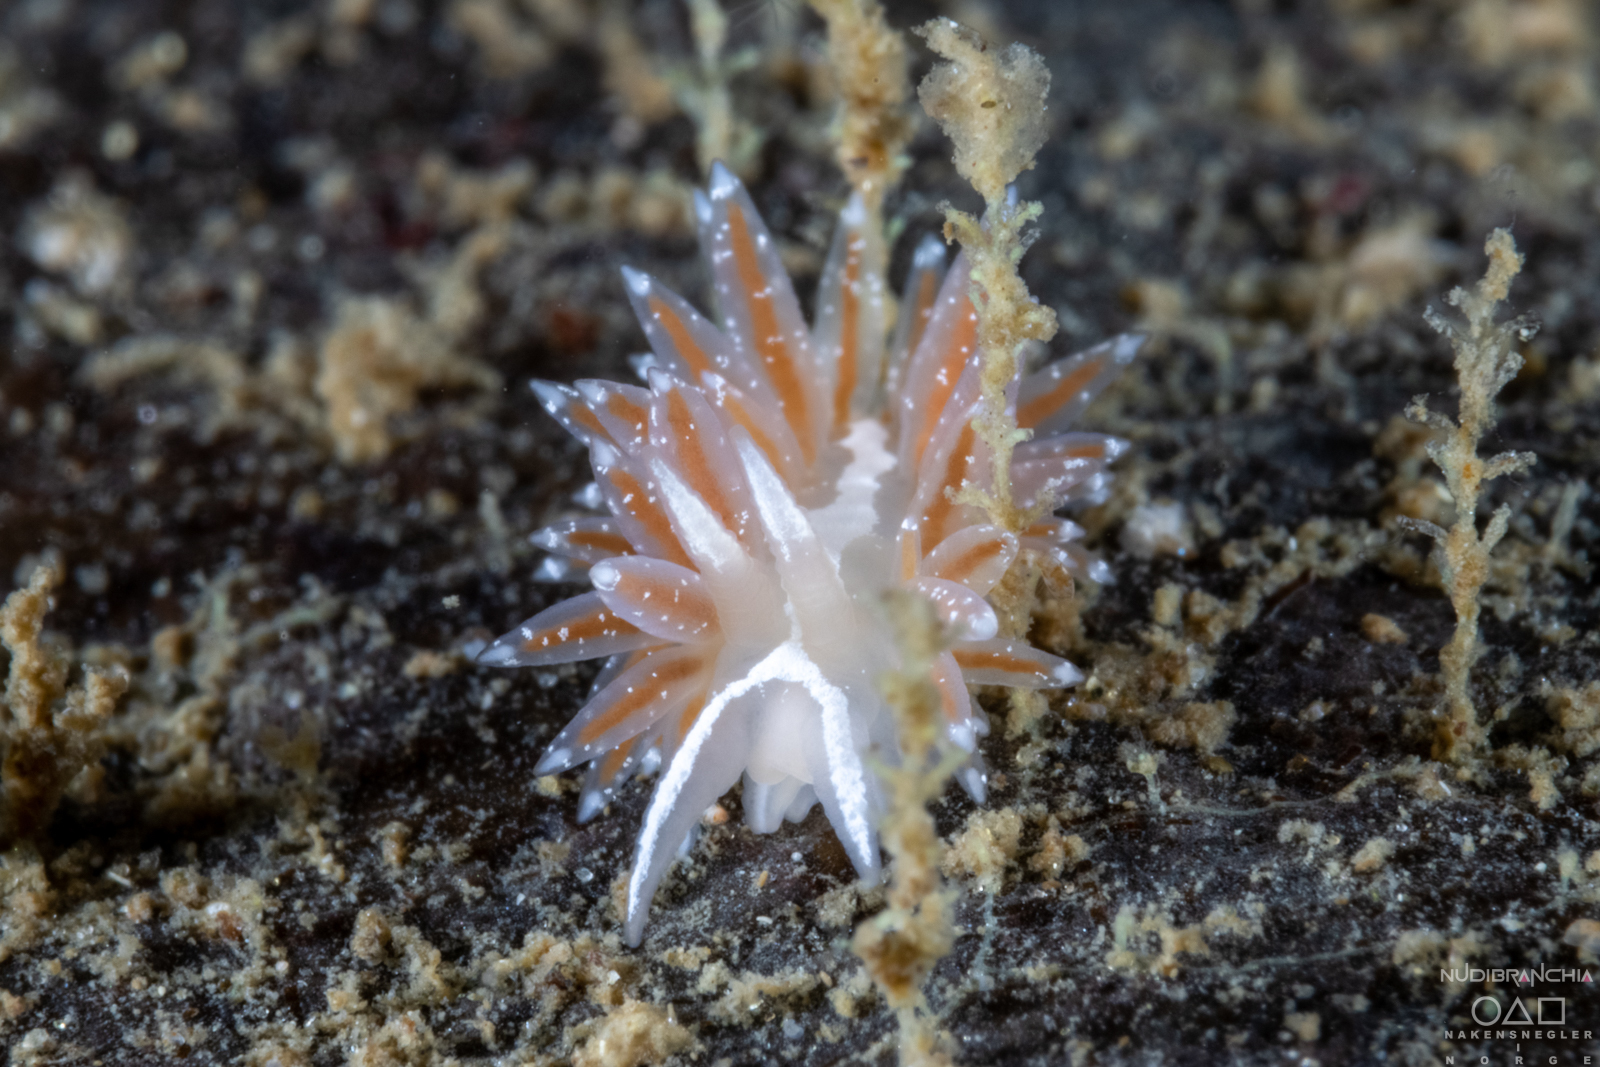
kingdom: Animalia
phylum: Mollusca
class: Gastropoda
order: Nudibranchia
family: Coryphellidae
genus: Coryphella
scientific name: Coryphella monicae
